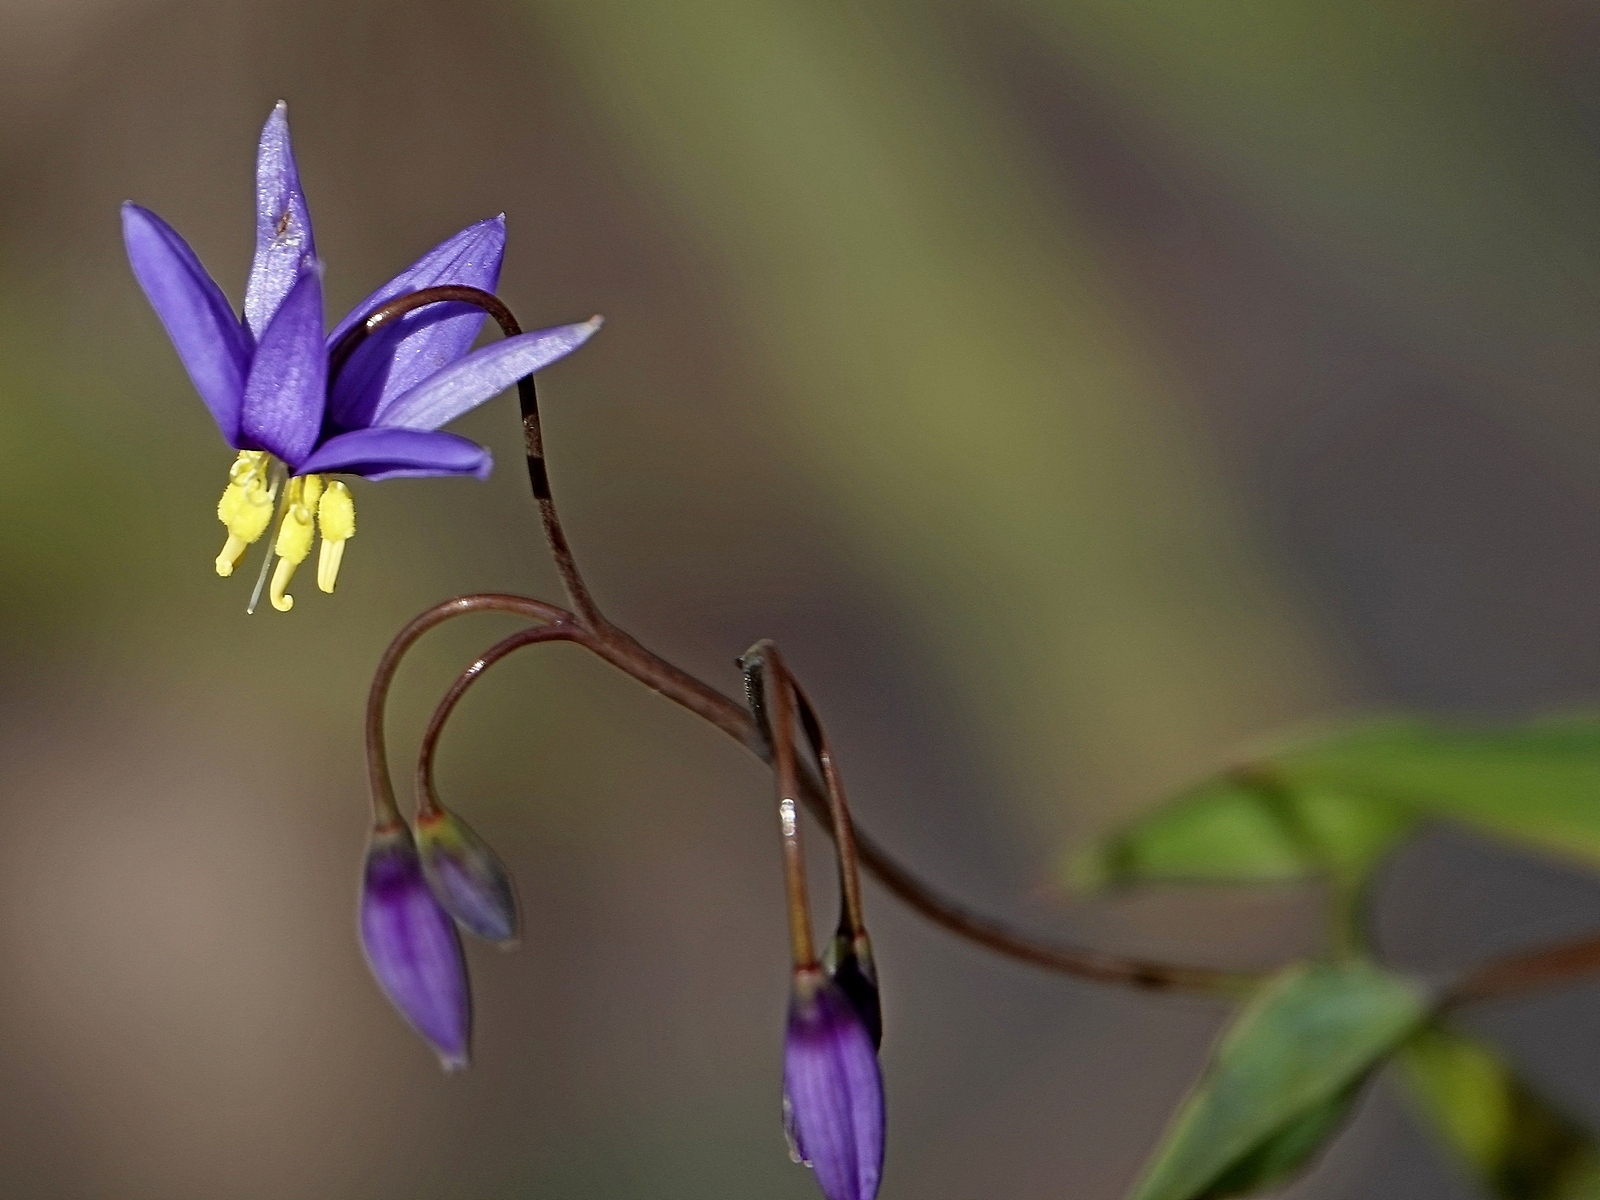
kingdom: Plantae
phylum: Tracheophyta
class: Liliopsida
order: Asparagales
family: Asphodelaceae
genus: Stypandra
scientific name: Stypandra glauca
